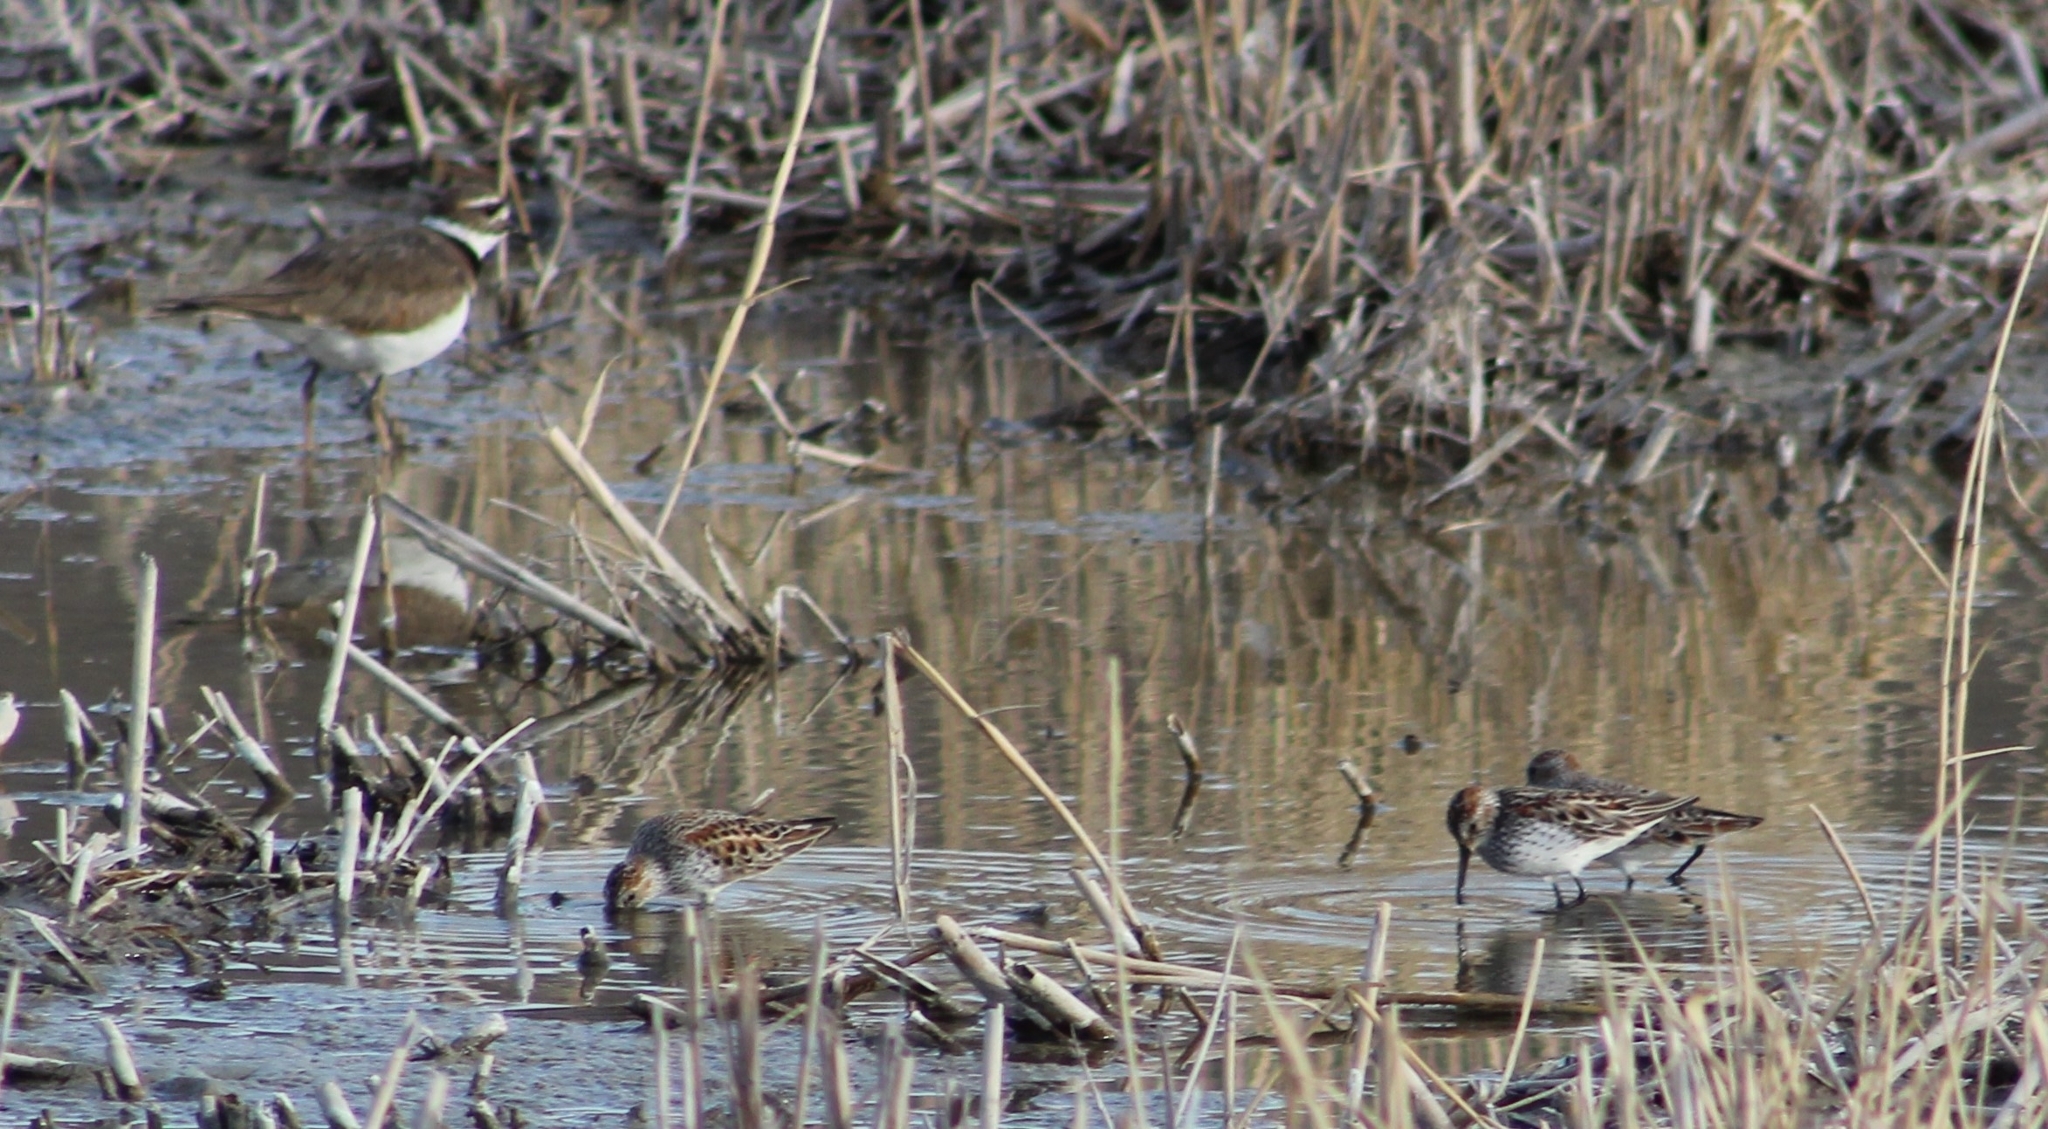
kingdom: Animalia
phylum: Chordata
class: Aves
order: Charadriiformes
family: Scolopacidae
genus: Calidris
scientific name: Calidris minutilla
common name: Least sandpiper
